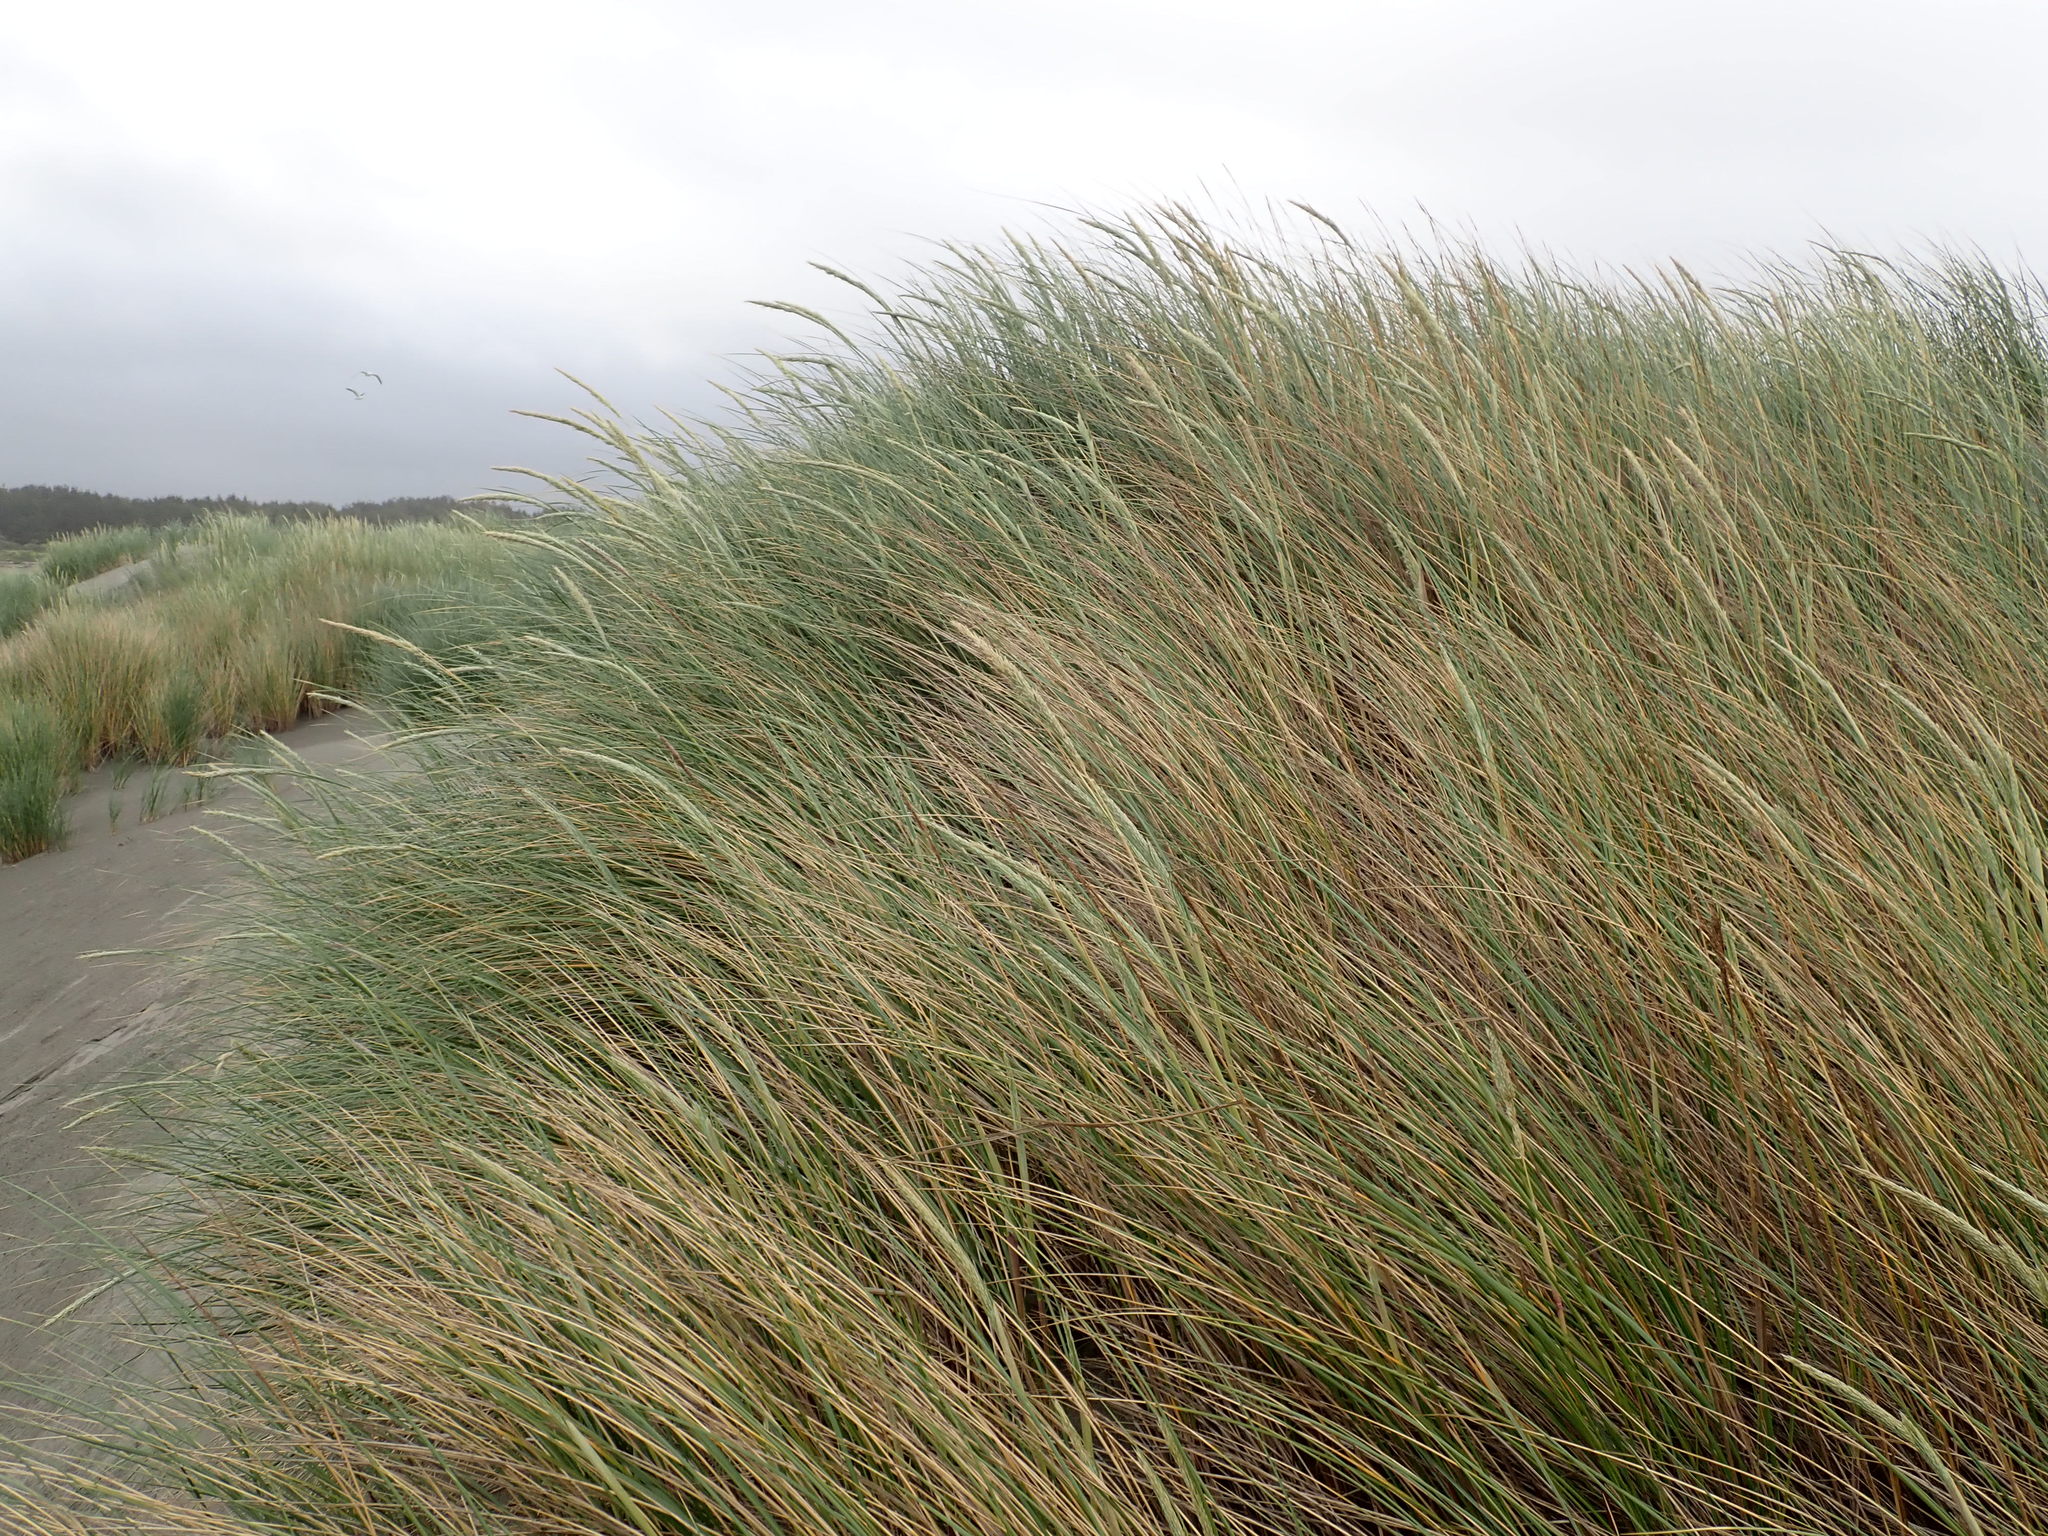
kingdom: Plantae
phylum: Tracheophyta
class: Liliopsida
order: Poales
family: Poaceae
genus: Calamagrostis
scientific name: Calamagrostis arenaria
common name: European beachgrass
